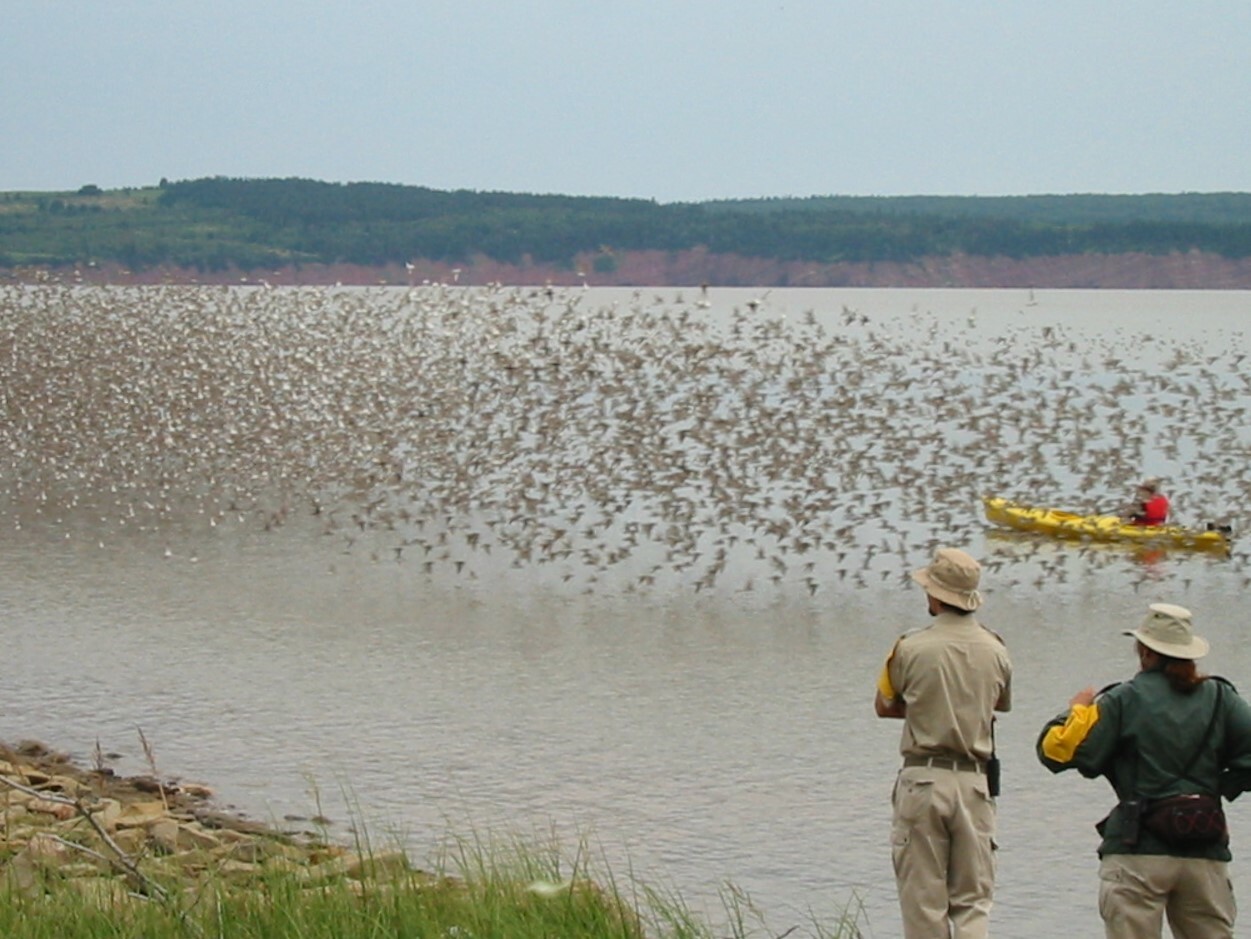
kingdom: Animalia
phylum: Chordata
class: Aves
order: Charadriiformes
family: Scolopacidae
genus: Calidris
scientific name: Calidris pusilla
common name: Semipalmated sandpiper
